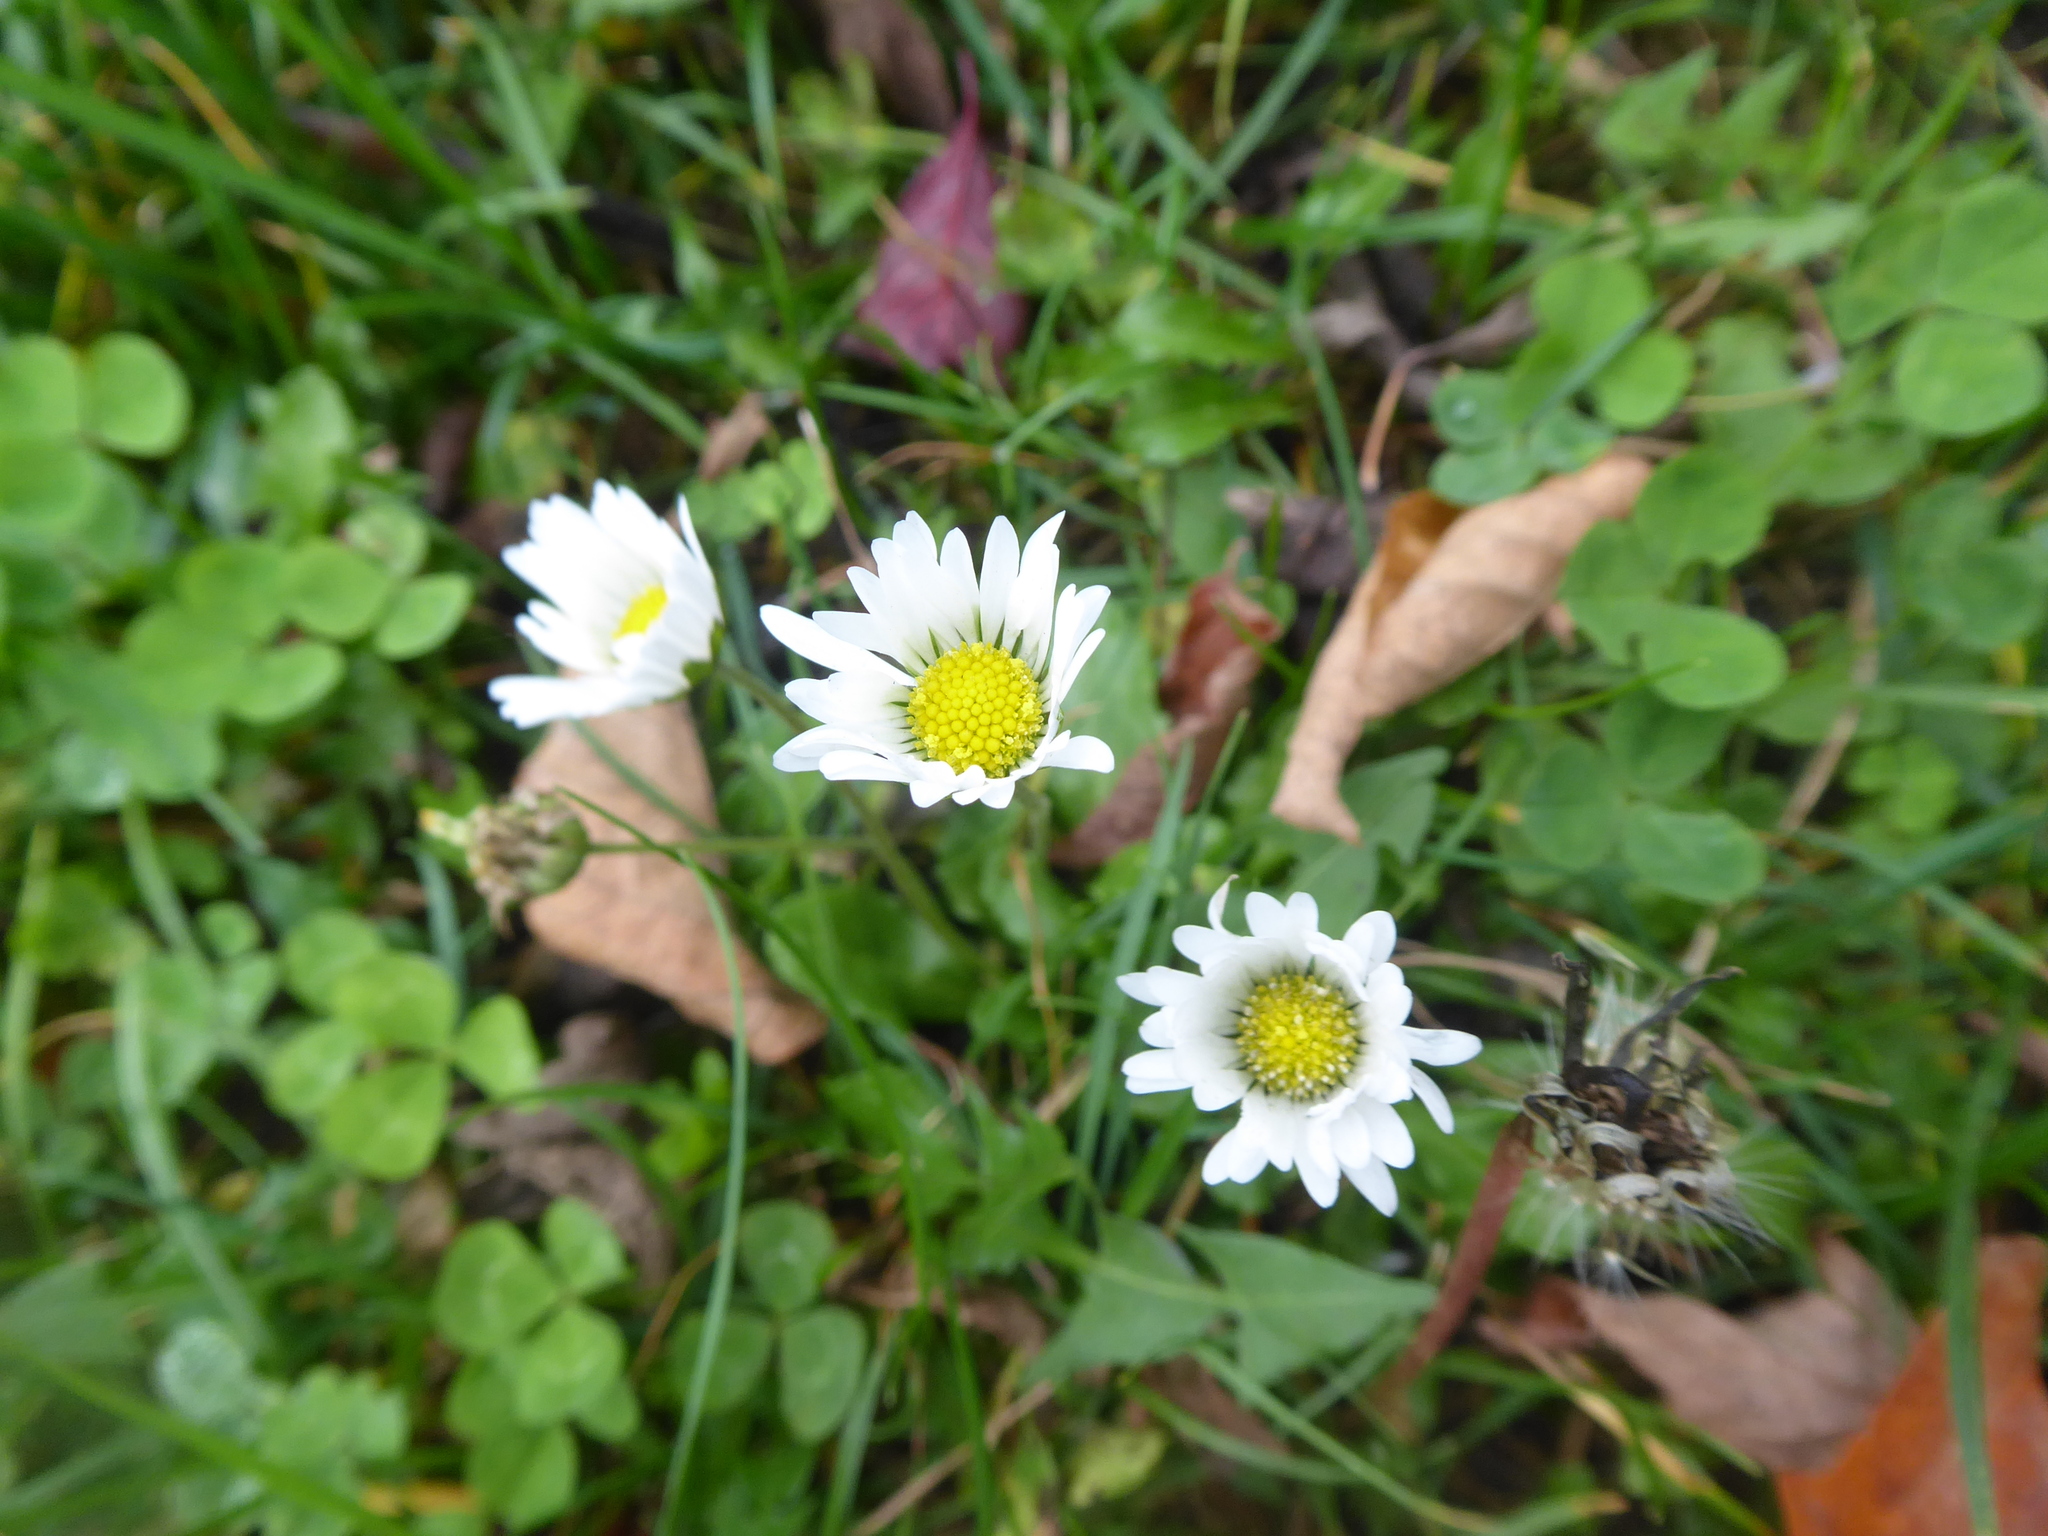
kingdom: Plantae
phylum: Tracheophyta
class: Magnoliopsida
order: Asterales
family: Asteraceae
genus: Bellis
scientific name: Bellis perennis
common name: Lawndaisy
